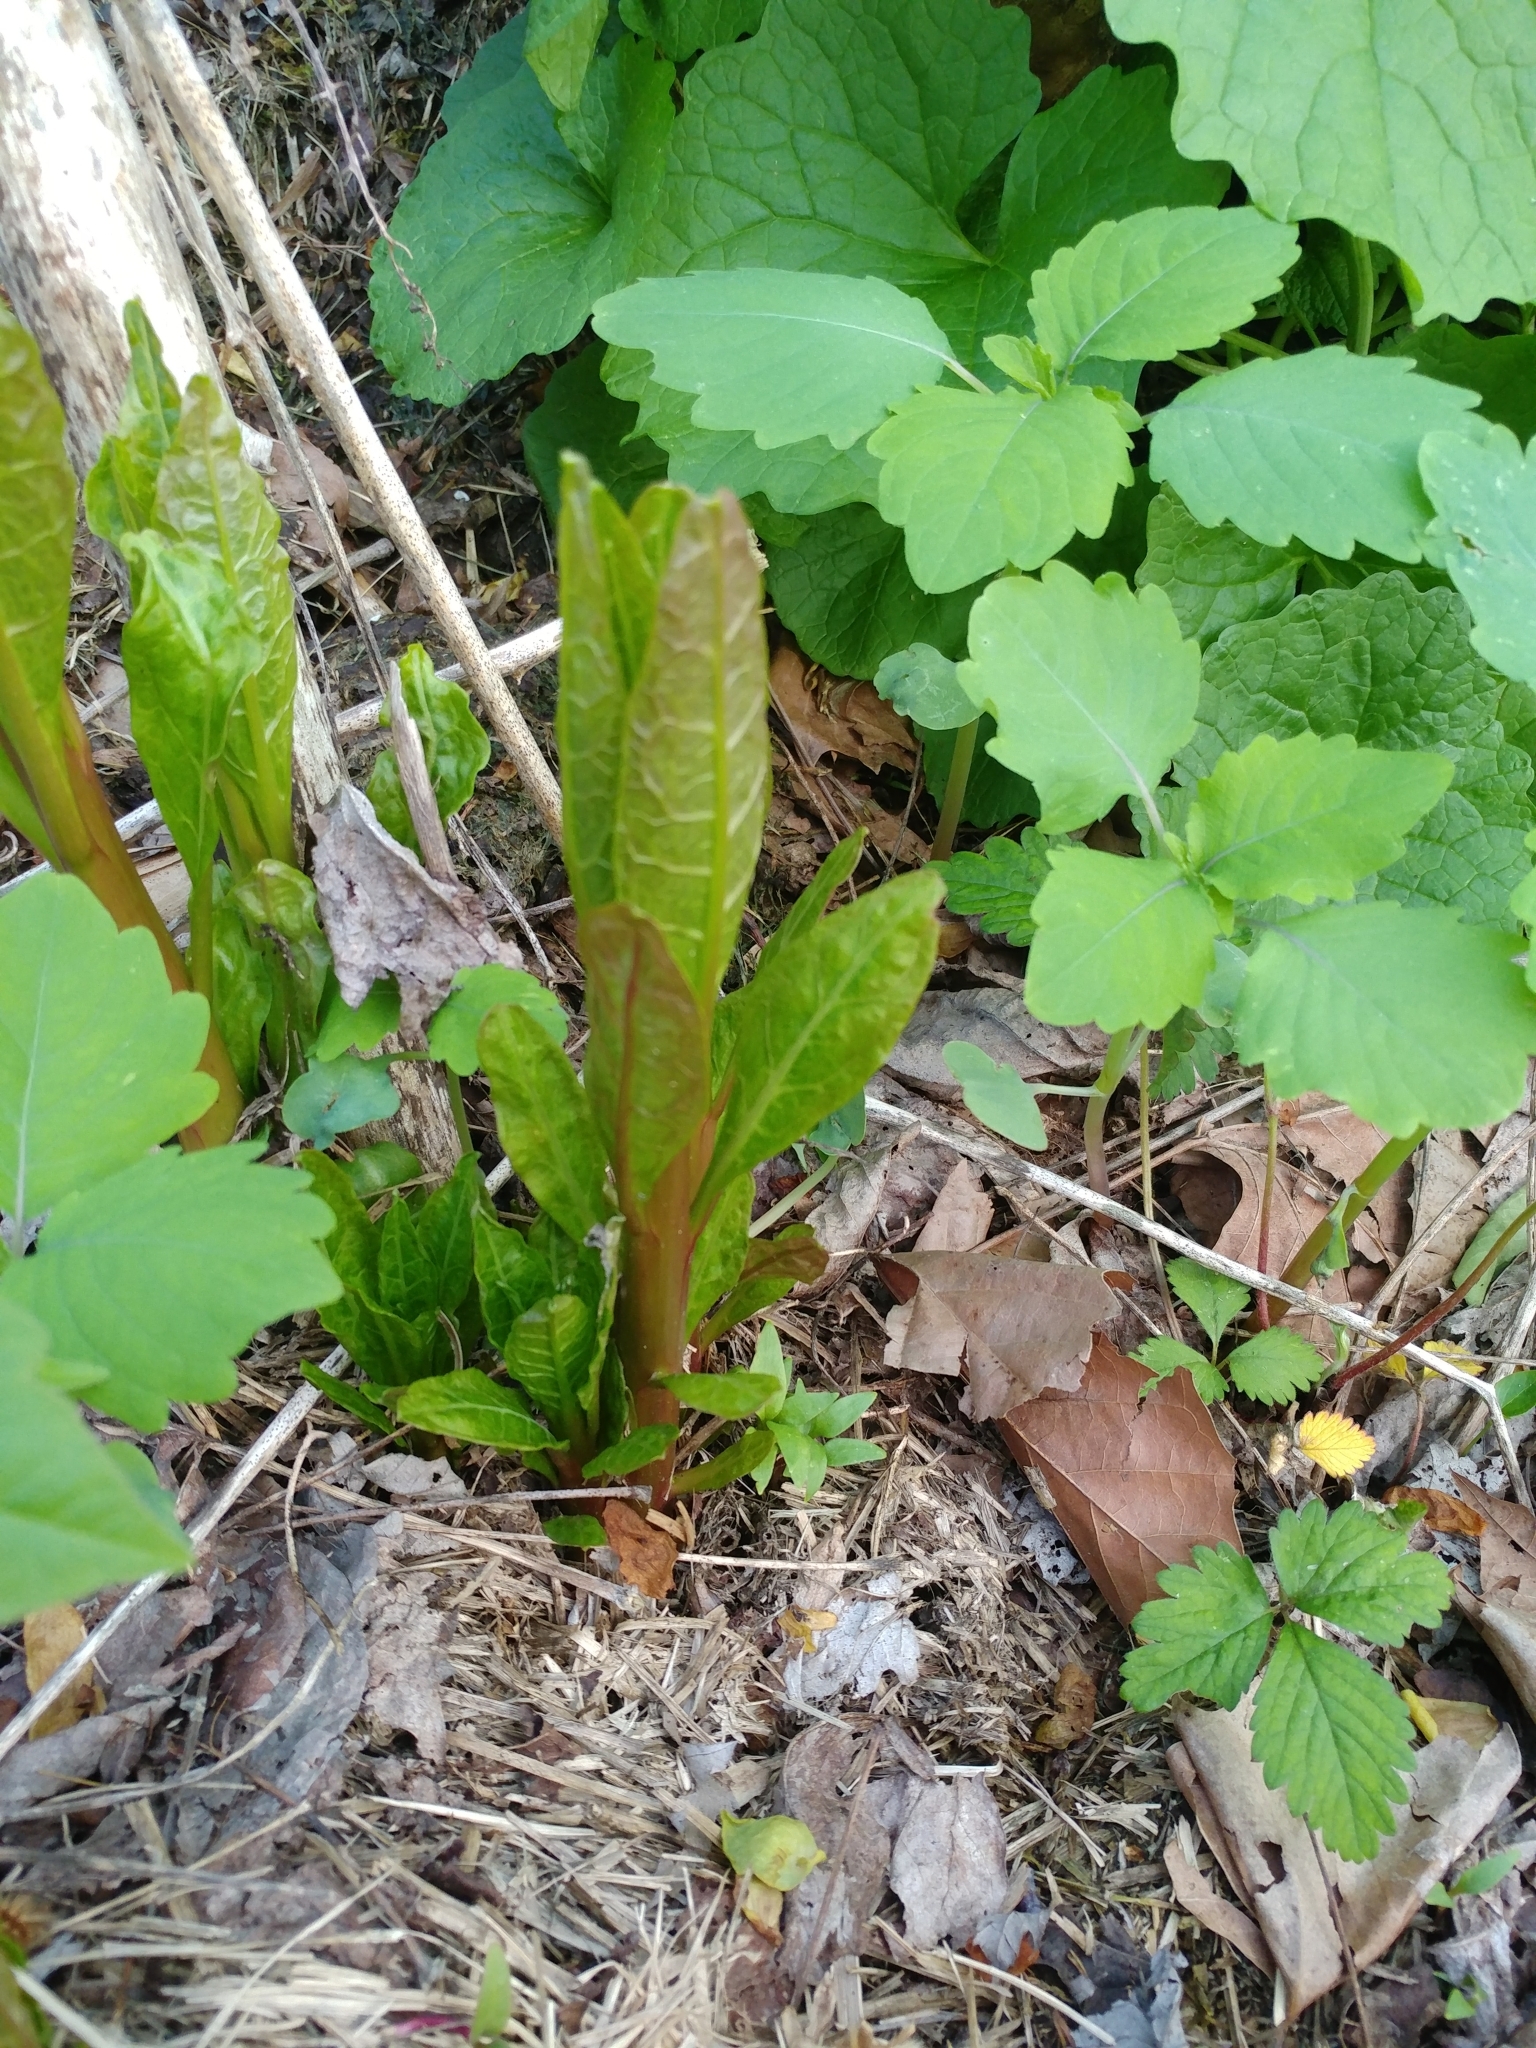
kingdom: Plantae
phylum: Tracheophyta
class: Magnoliopsida
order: Caryophyllales
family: Phytolaccaceae
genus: Phytolacca
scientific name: Phytolacca americana
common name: American pokeweed
